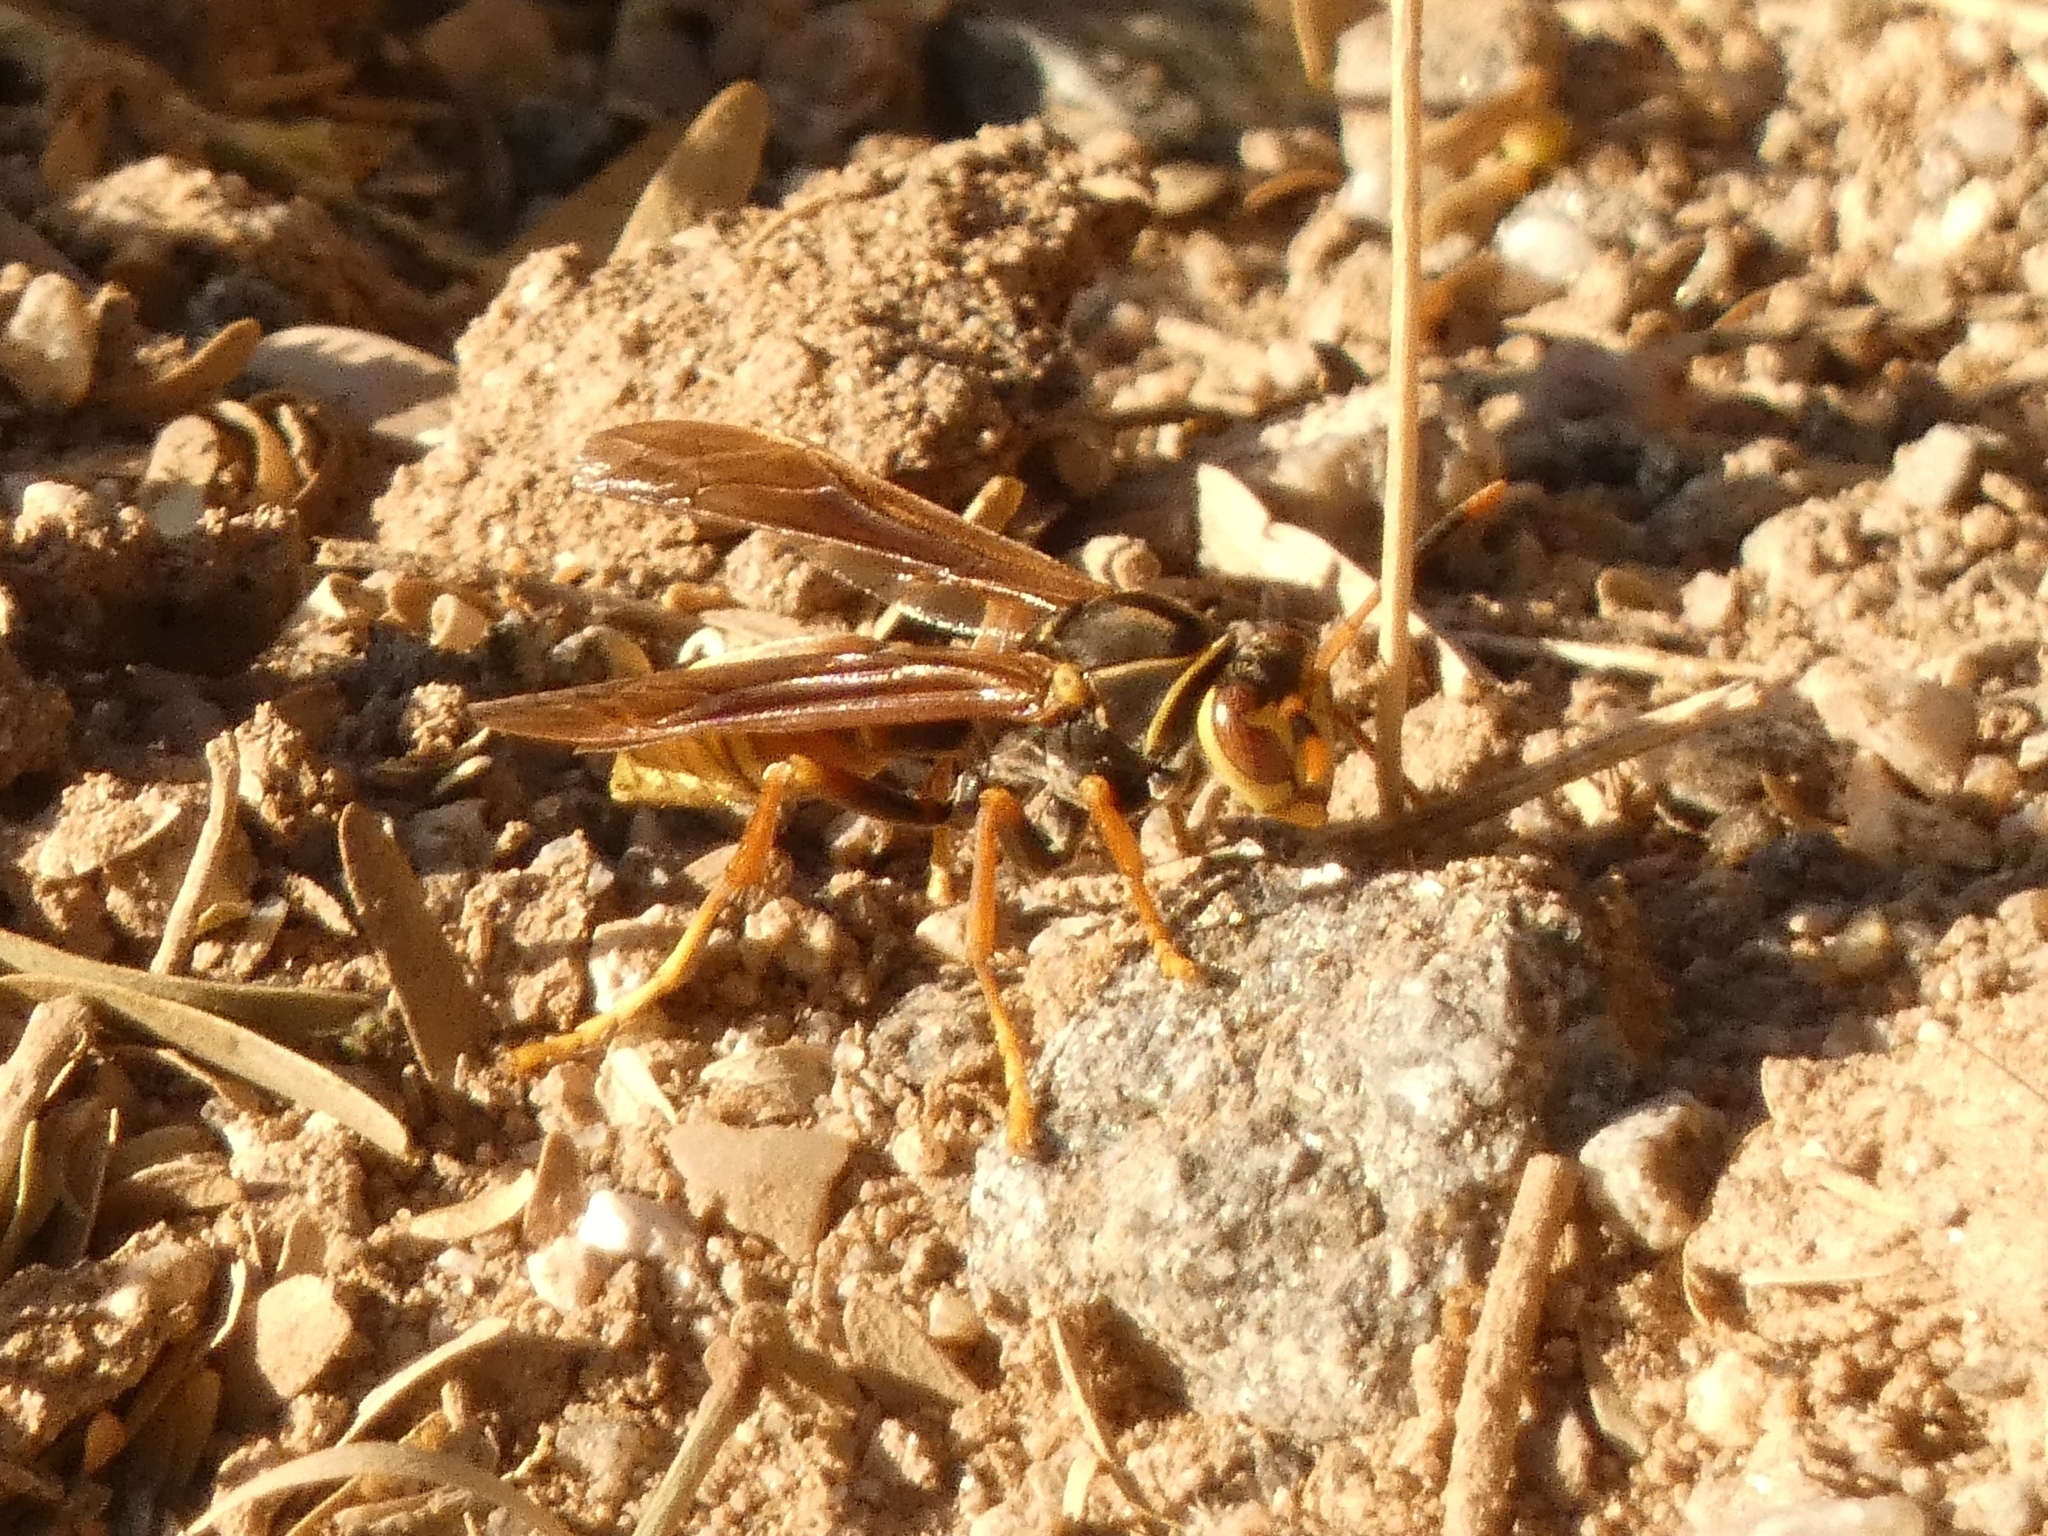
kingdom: Animalia
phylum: Arthropoda
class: Insecta
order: Hymenoptera
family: Eumenidae
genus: Polistes
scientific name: Polistes buyssoni
